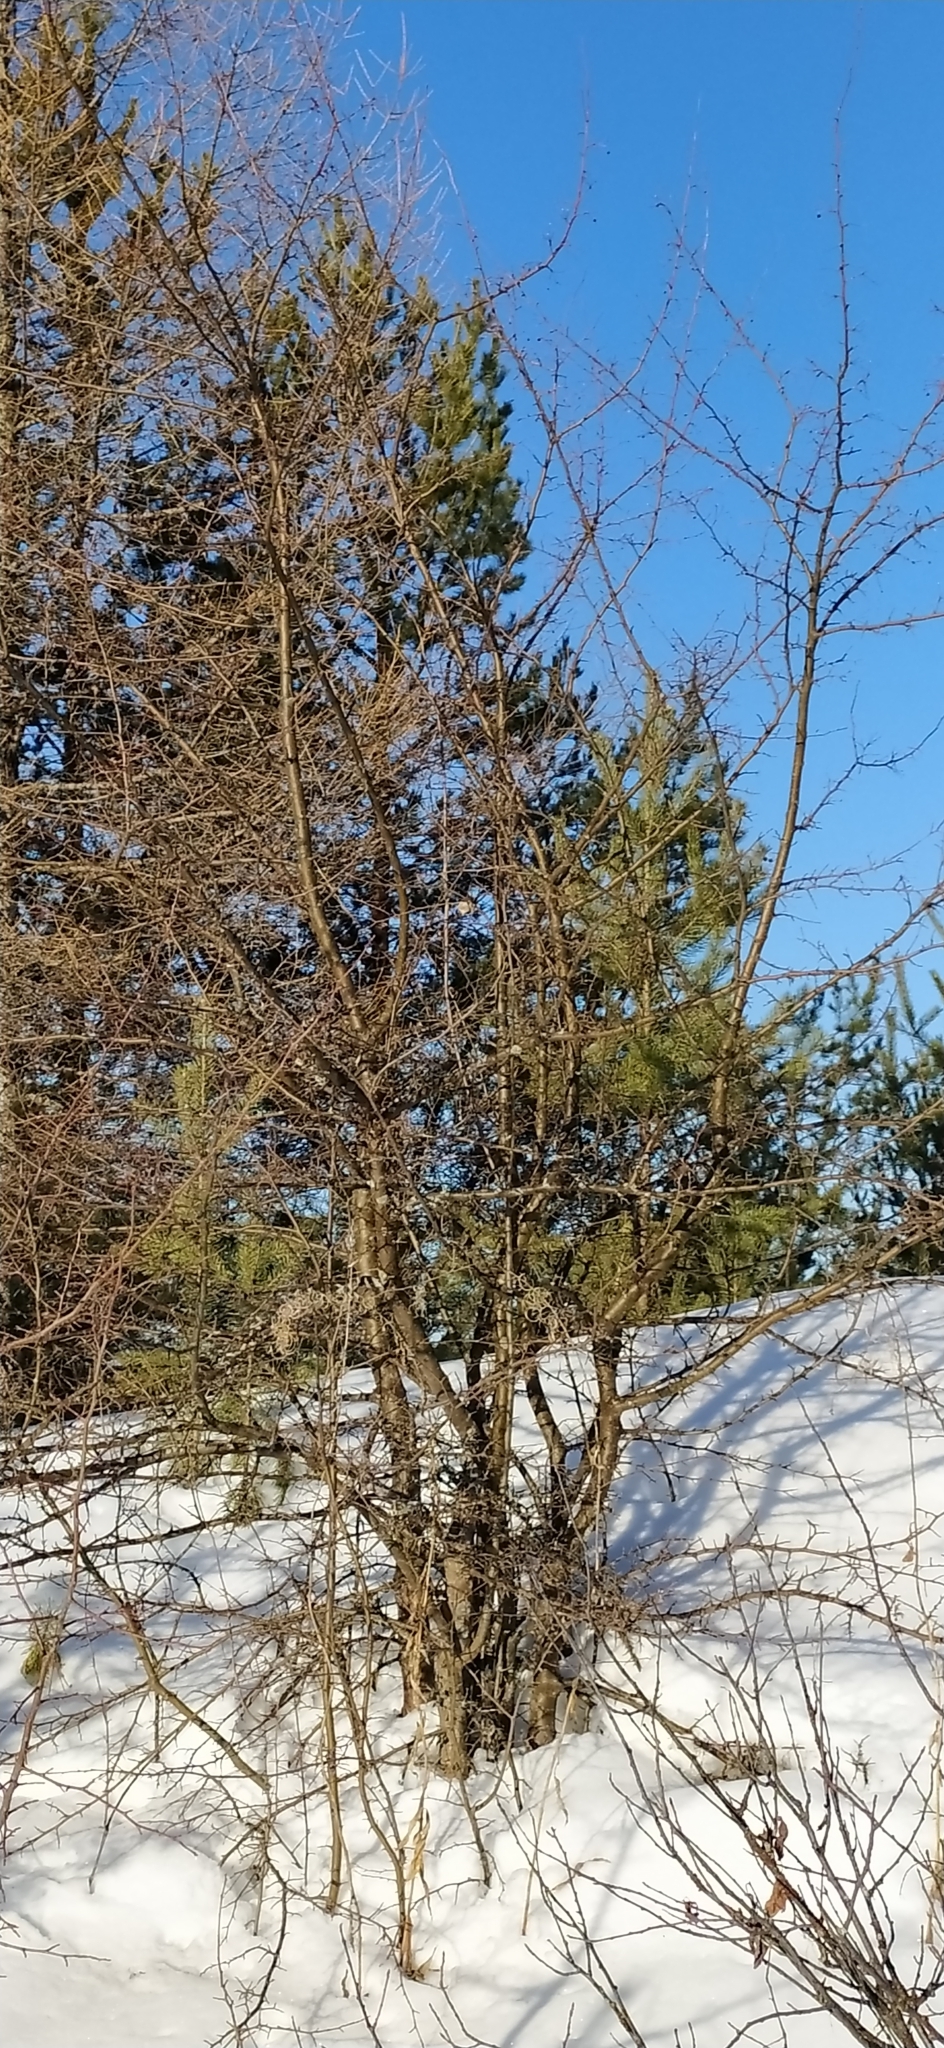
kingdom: Plantae
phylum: Tracheophyta
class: Magnoliopsida
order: Rosales
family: Rosaceae
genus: Malus
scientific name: Malus baccata
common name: Siberian crab
